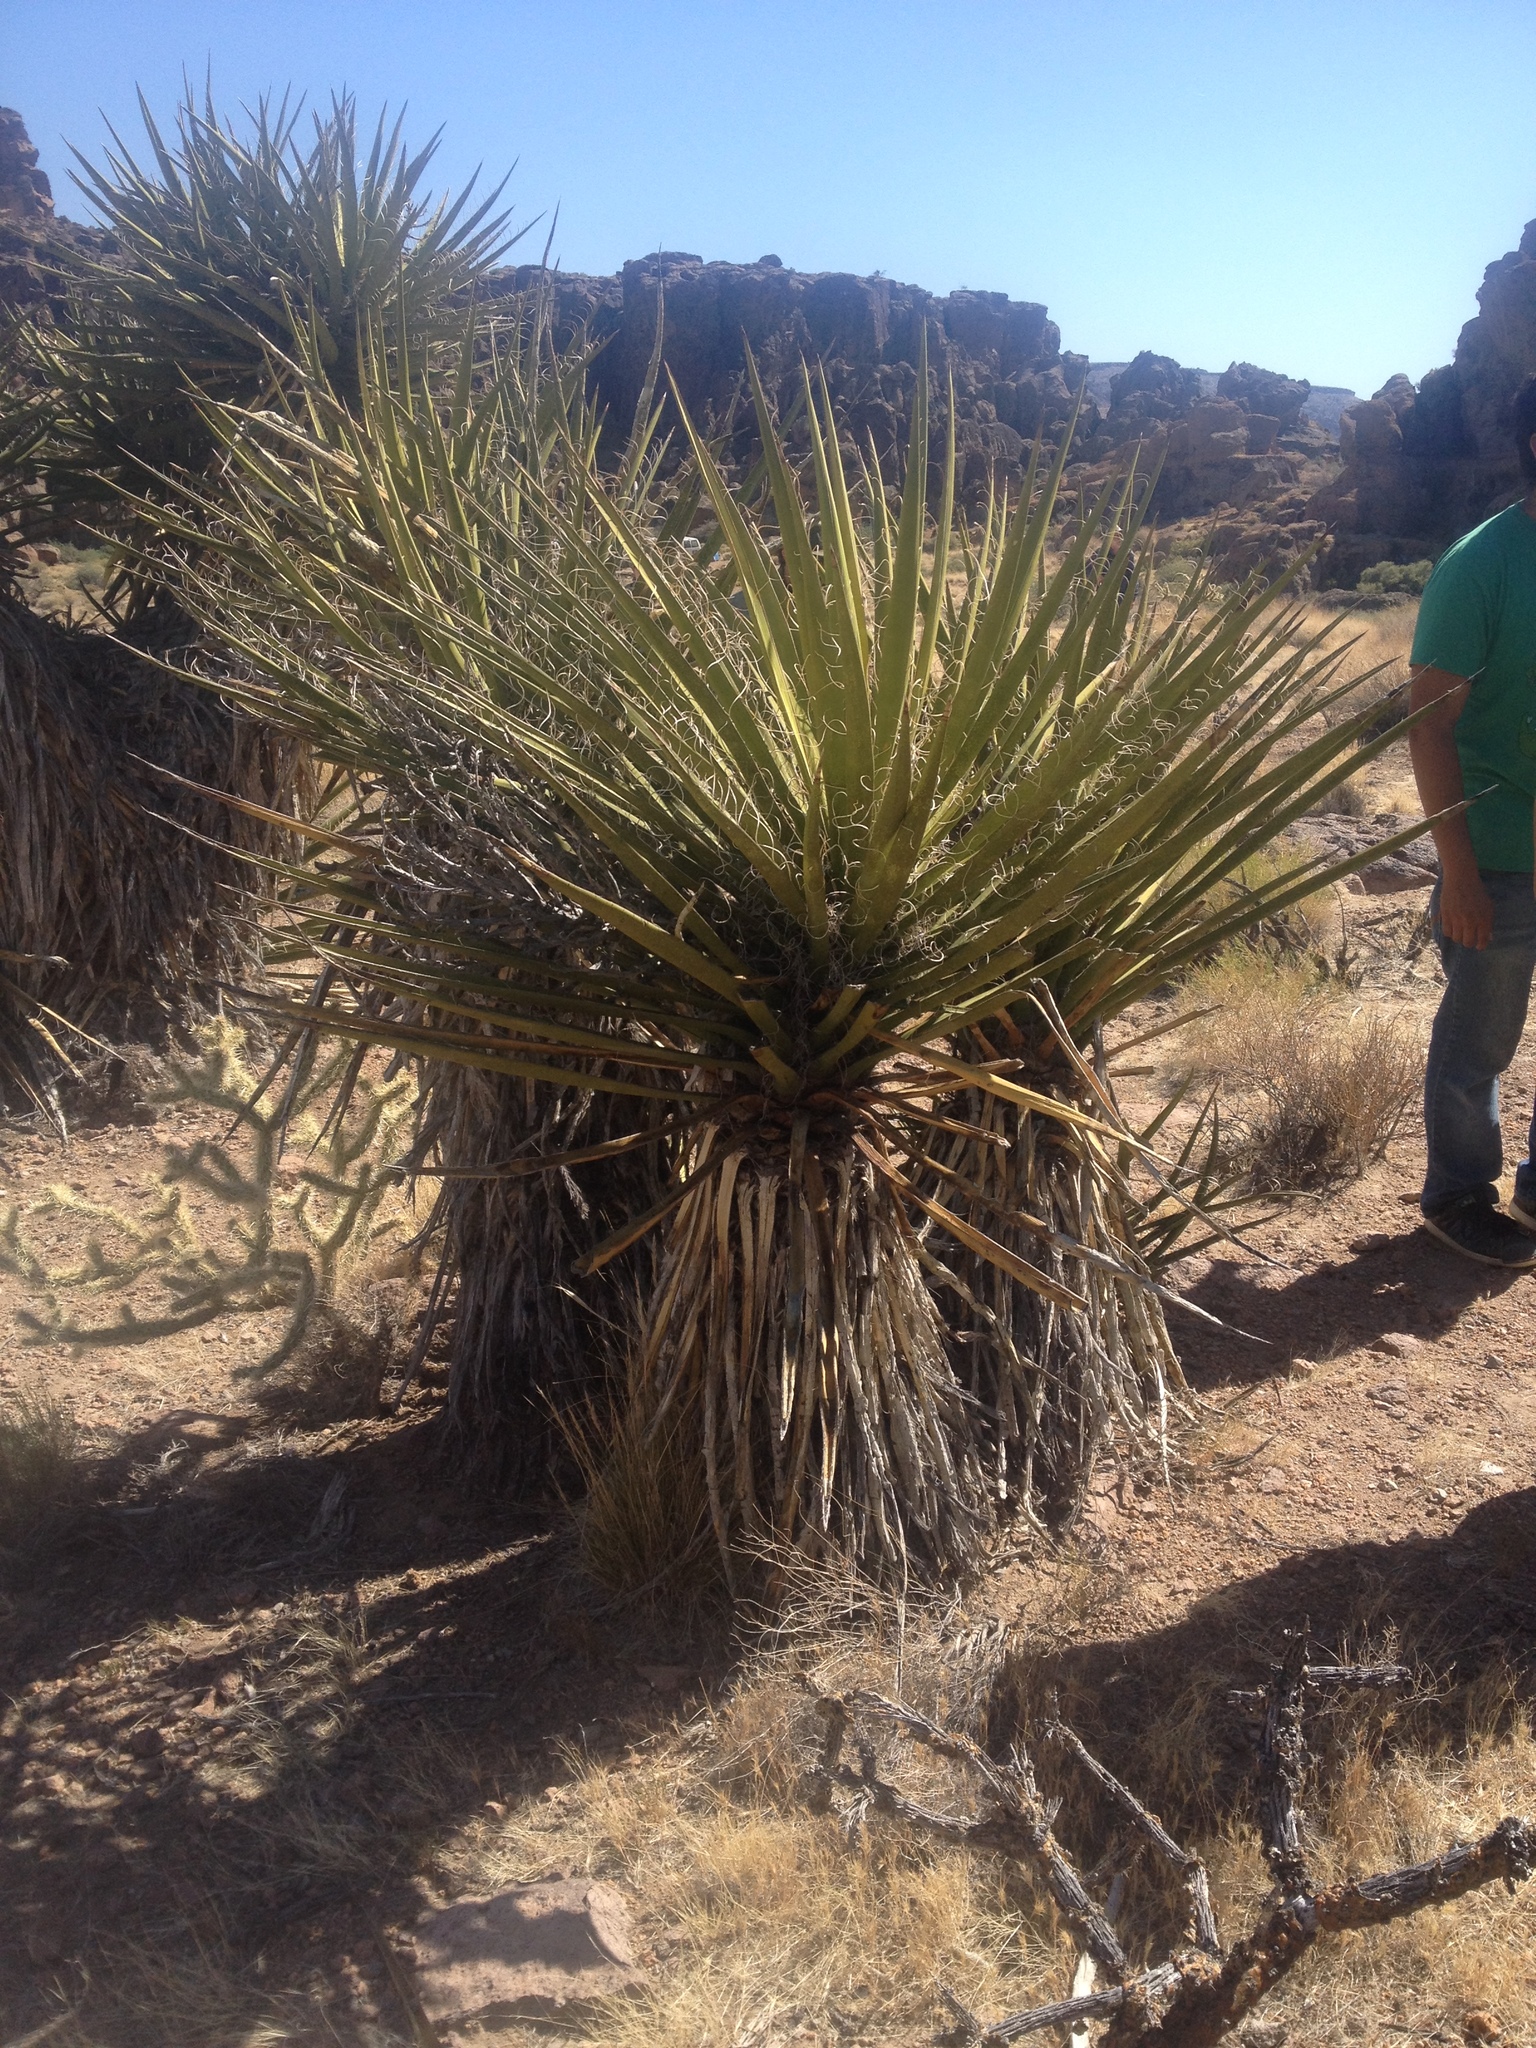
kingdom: Plantae
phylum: Tracheophyta
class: Liliopsida
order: Asparagales
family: Asparagaceae
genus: Yucca
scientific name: Yucca schidigera
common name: Mojave yucca
